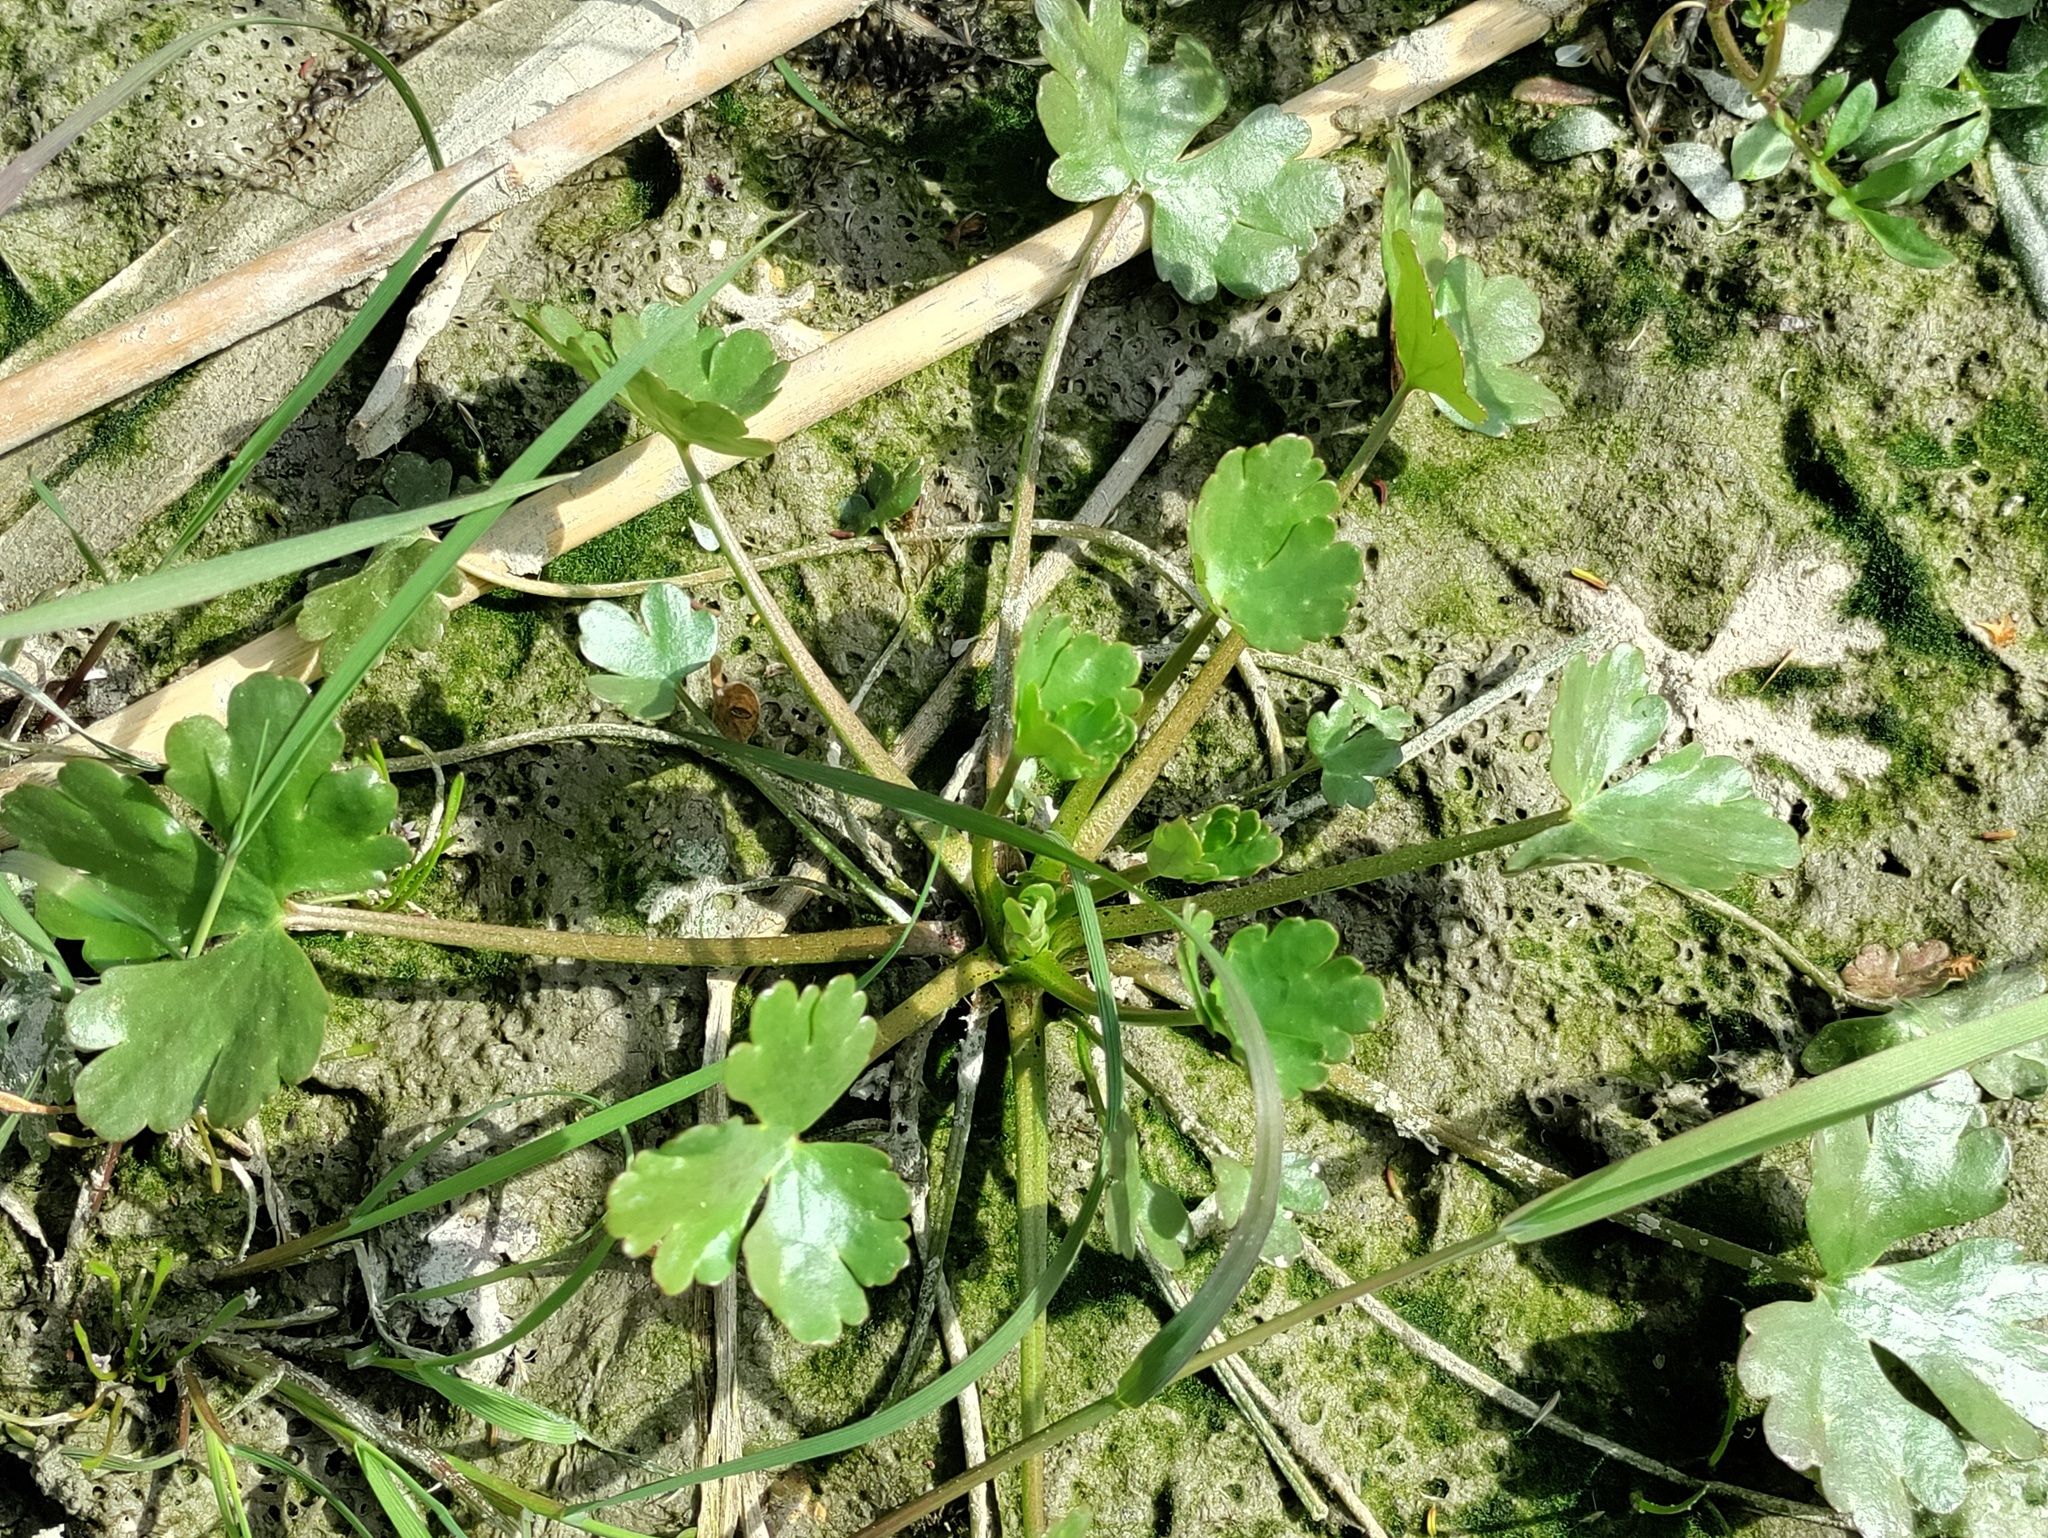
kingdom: Plantae
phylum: Tracheophyta
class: Magnoliopsida
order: Ranunculales
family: Ranunculaceae
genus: Ranunculus
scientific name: Ranunculus sceleratus
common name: Celery-leaved buttercup
